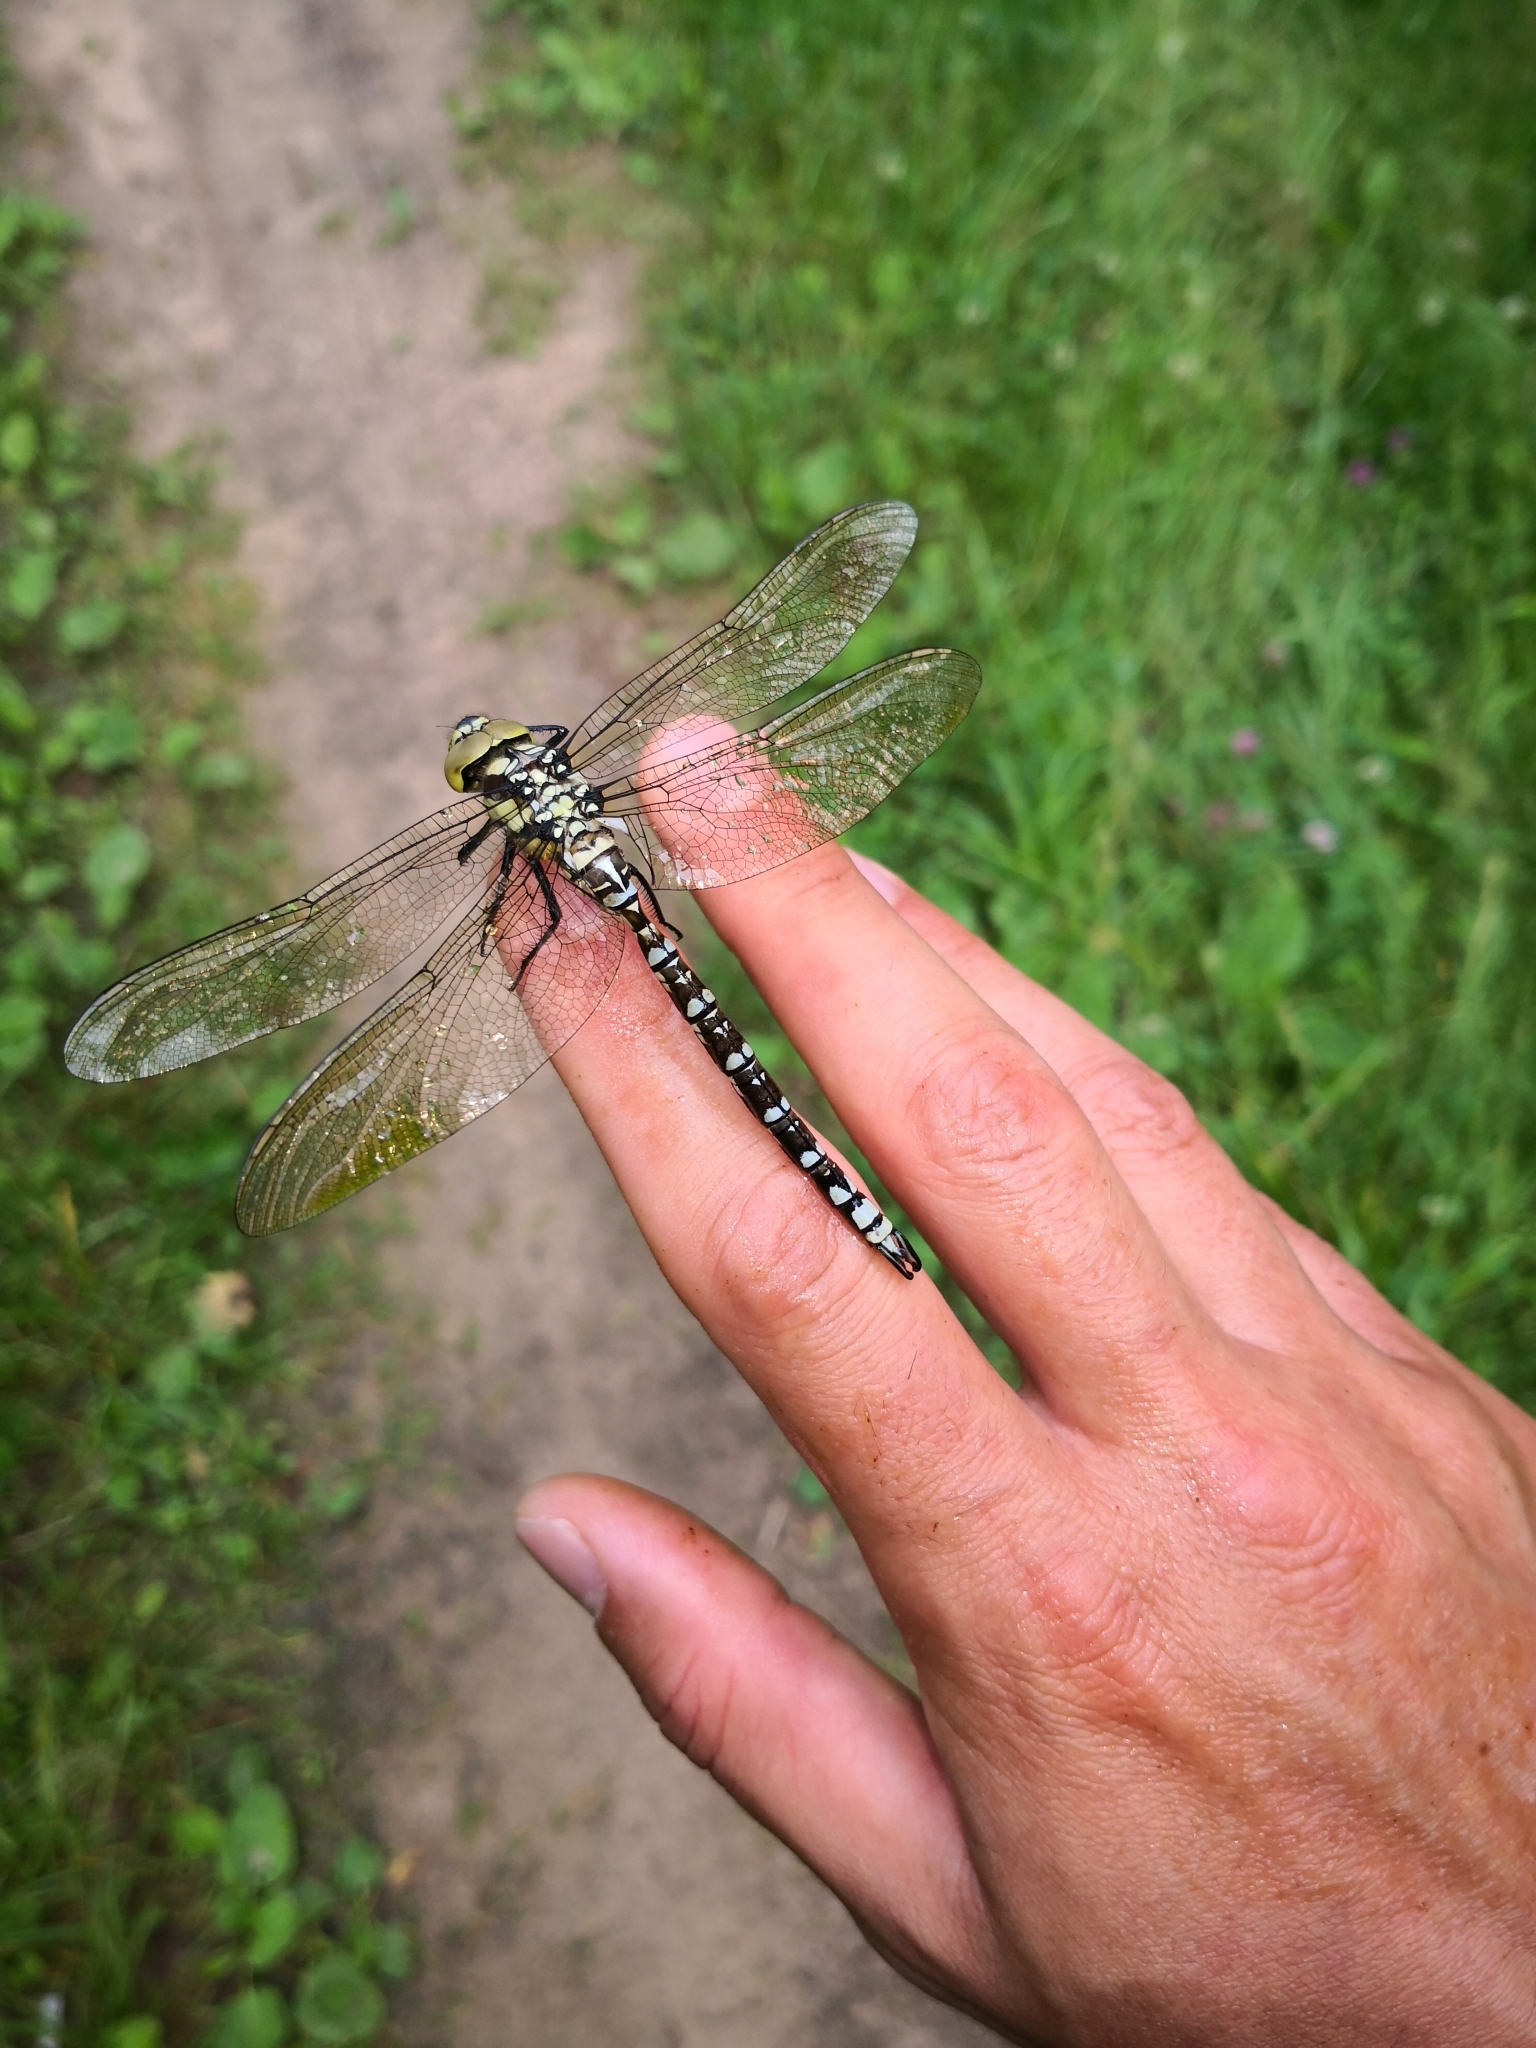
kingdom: Animalia
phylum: Arthropoda
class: Insecta
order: Odonata
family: Aeshnidae
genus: Aeshna
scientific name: Aeshna cyanea
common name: Southern hawker
